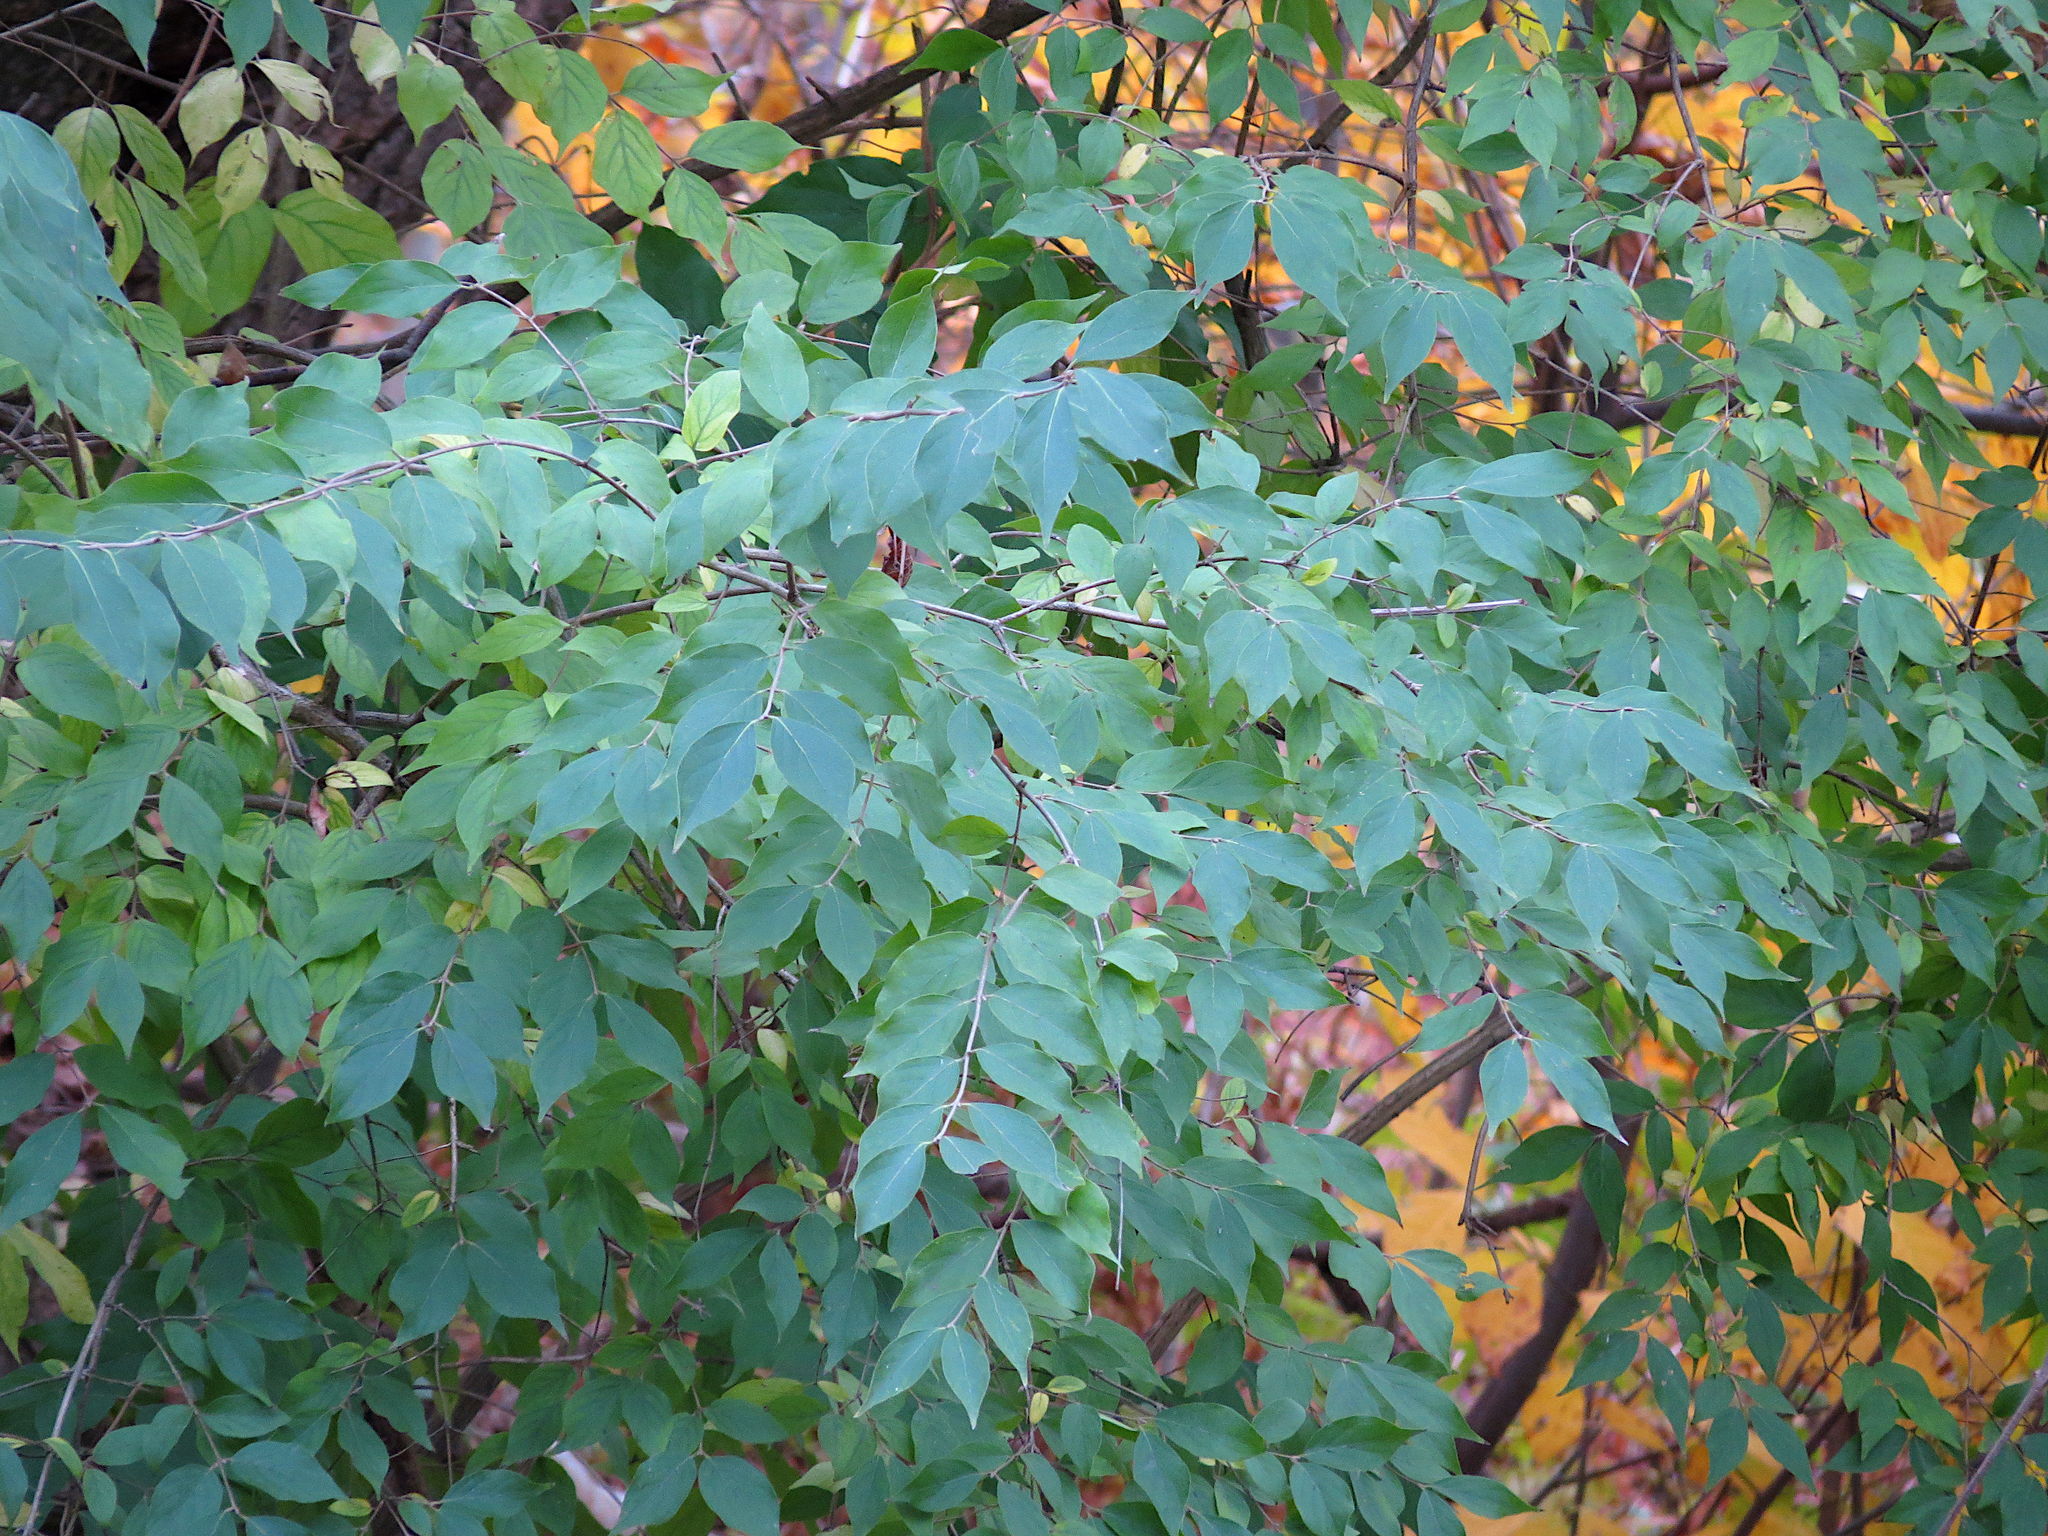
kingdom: Plantae
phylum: Tracheophyta
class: Magnoliopsida
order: Dipsacales
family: Caprifoliaceae
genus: Lonicera
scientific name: Lonicera maackii
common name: Amur honeysuckle
